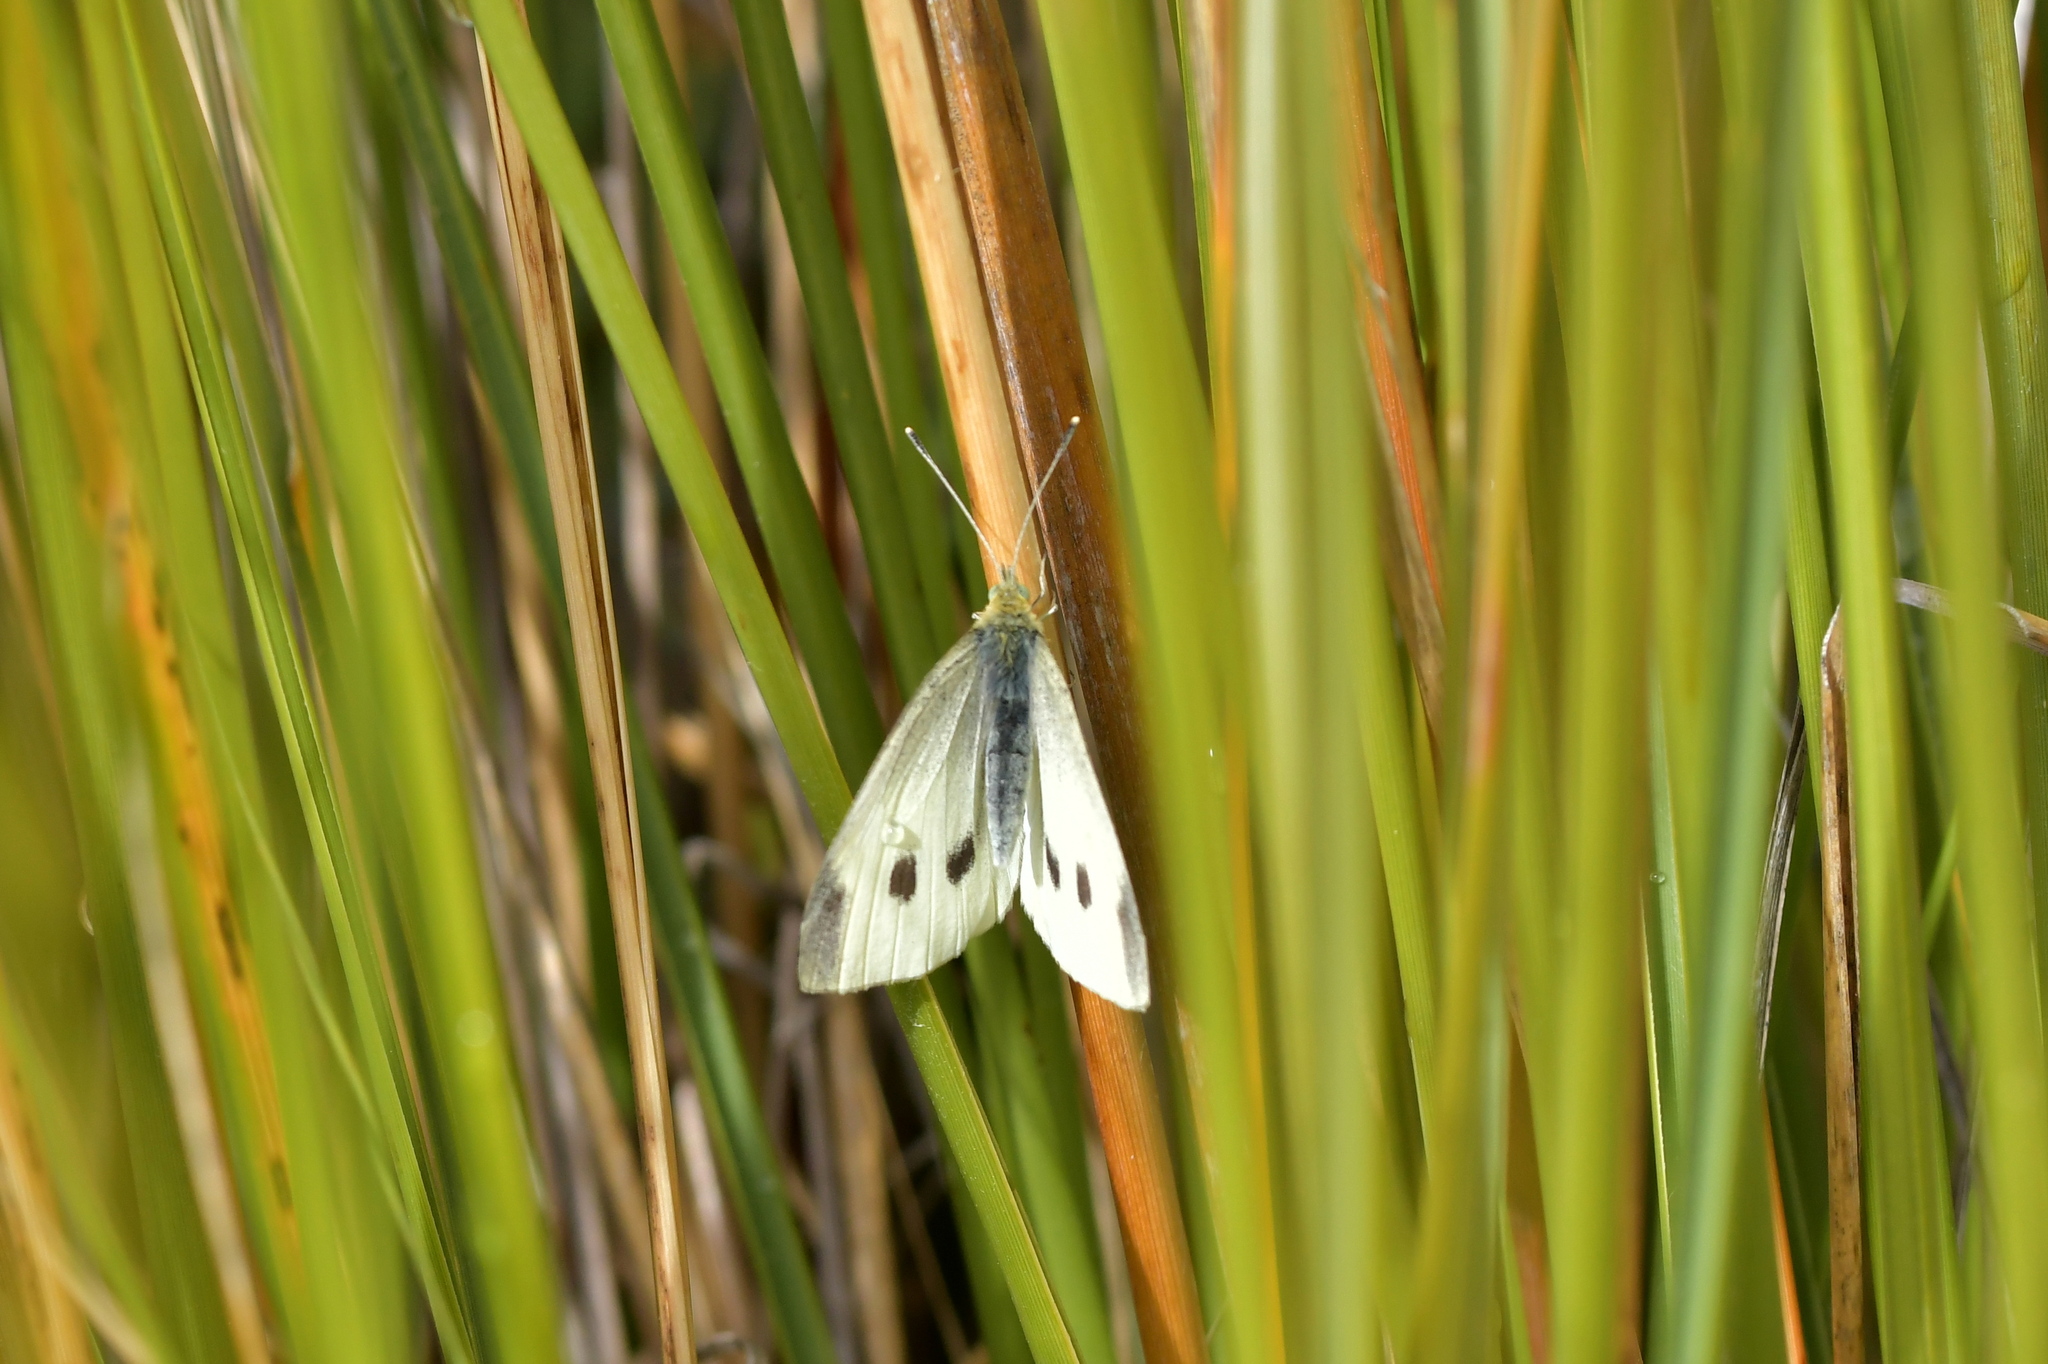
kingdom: Animalia
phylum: Arthropoda
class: Insecta
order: Lepidoptera
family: Pieridae
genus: Pieris
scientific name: Pieris rapae
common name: Small white
